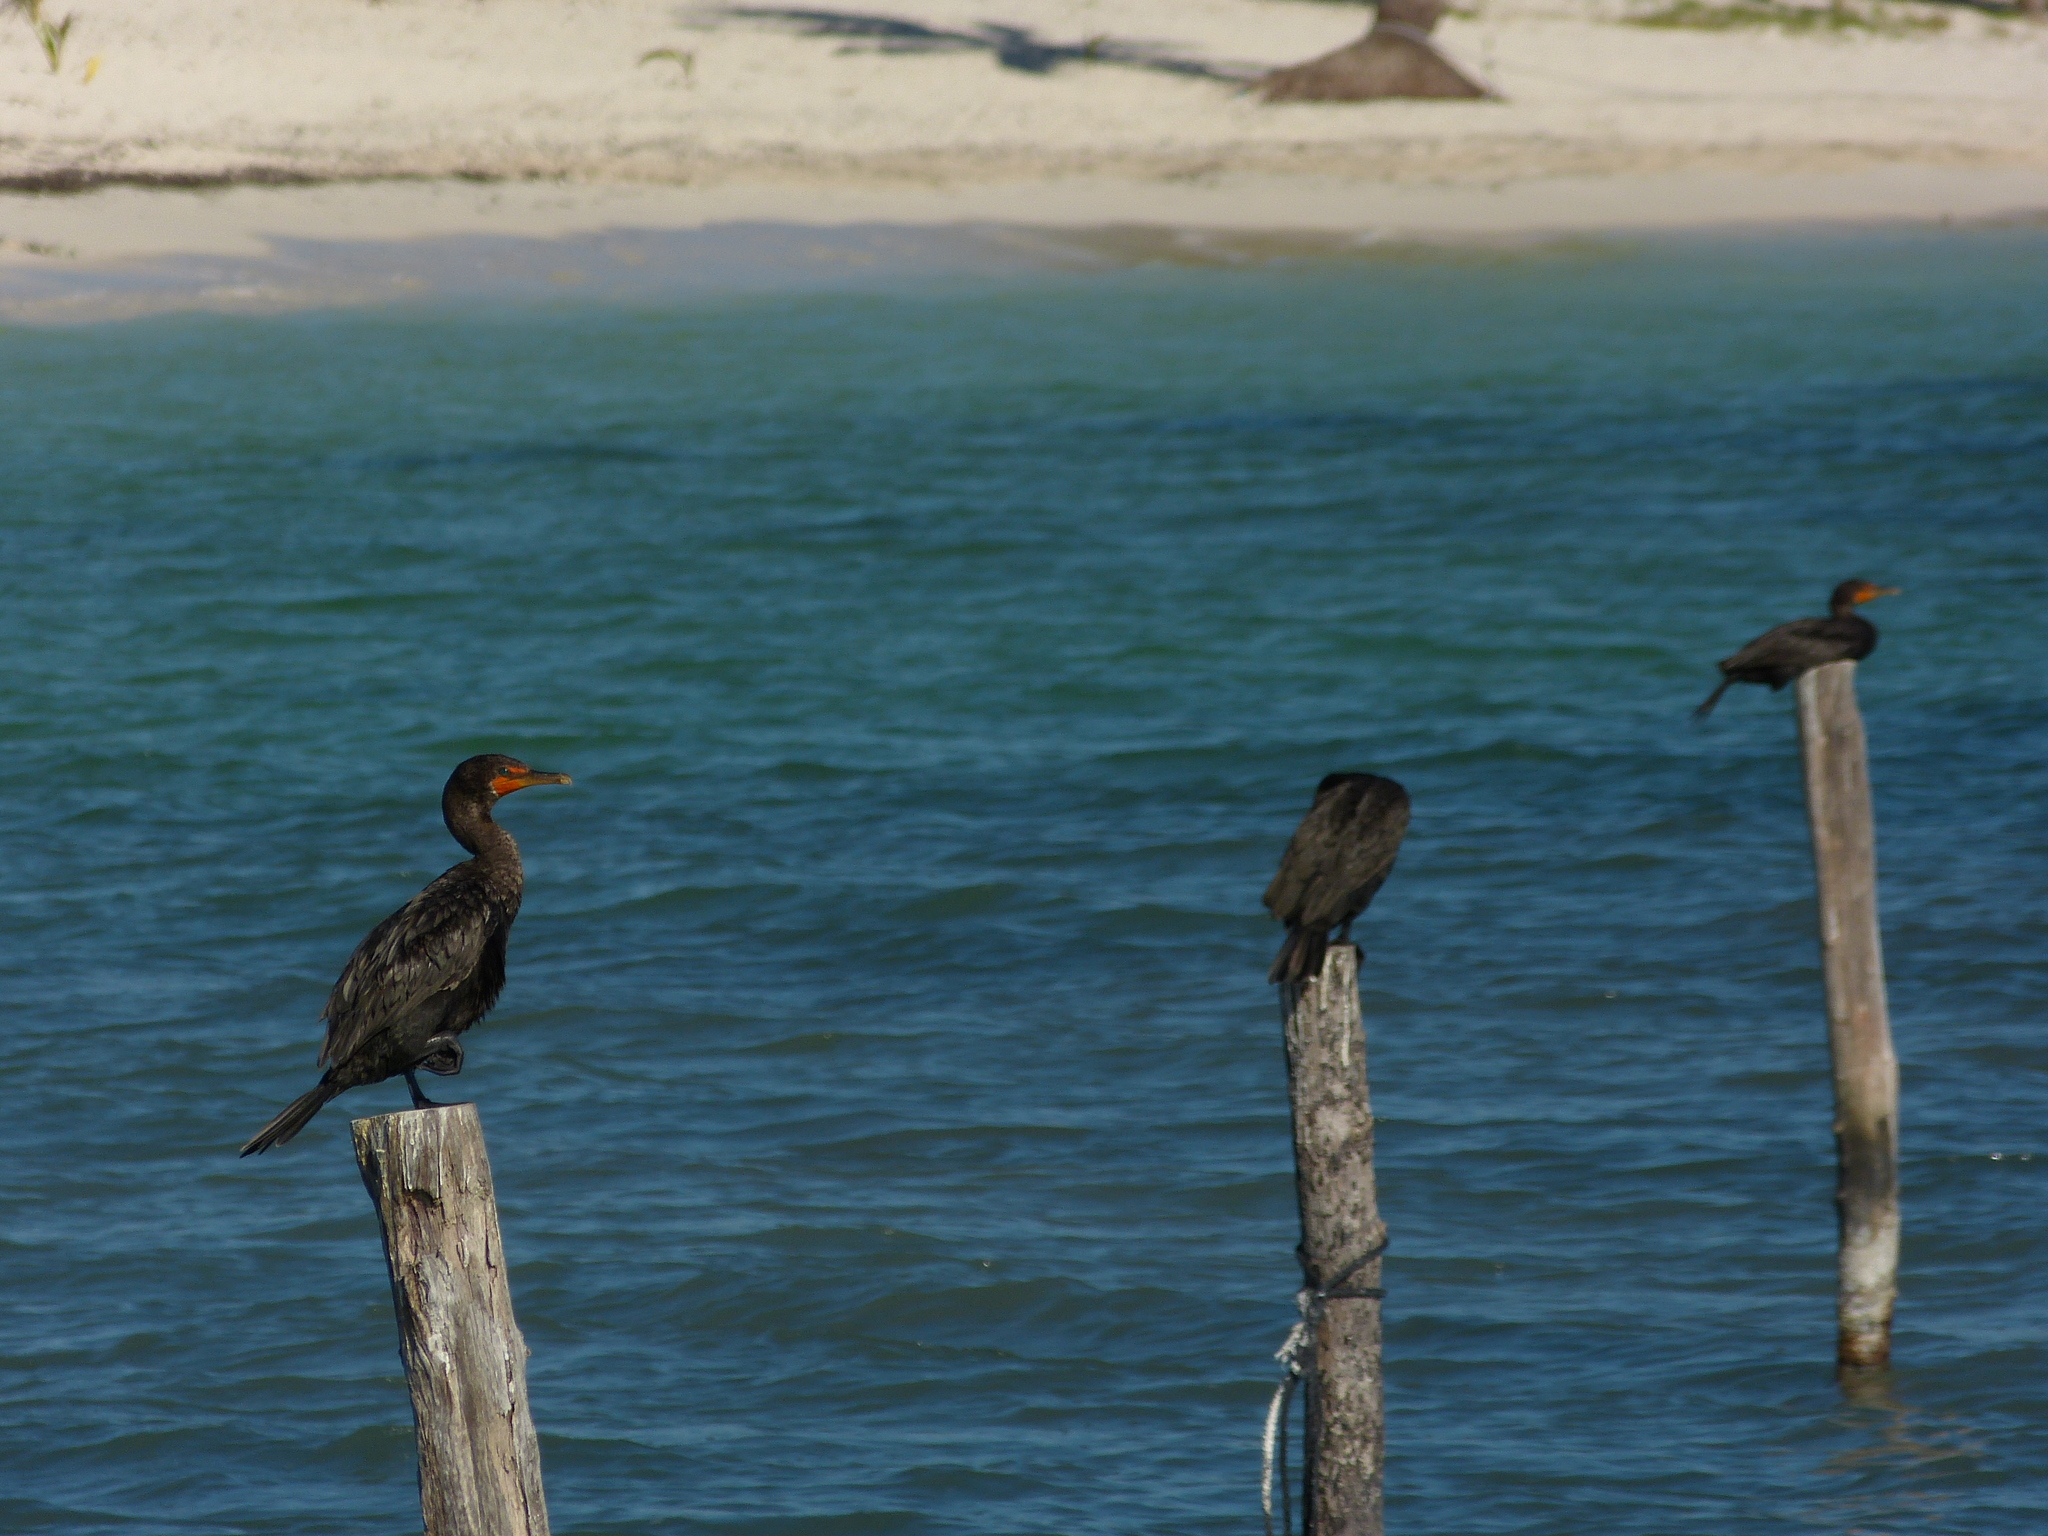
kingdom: Animalia
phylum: Chordata
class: Aves
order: Suliformes
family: Phalacrocoracidae
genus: Phalacrocorax
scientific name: Phalacrocorax auritus
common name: Double-crested cormorant
